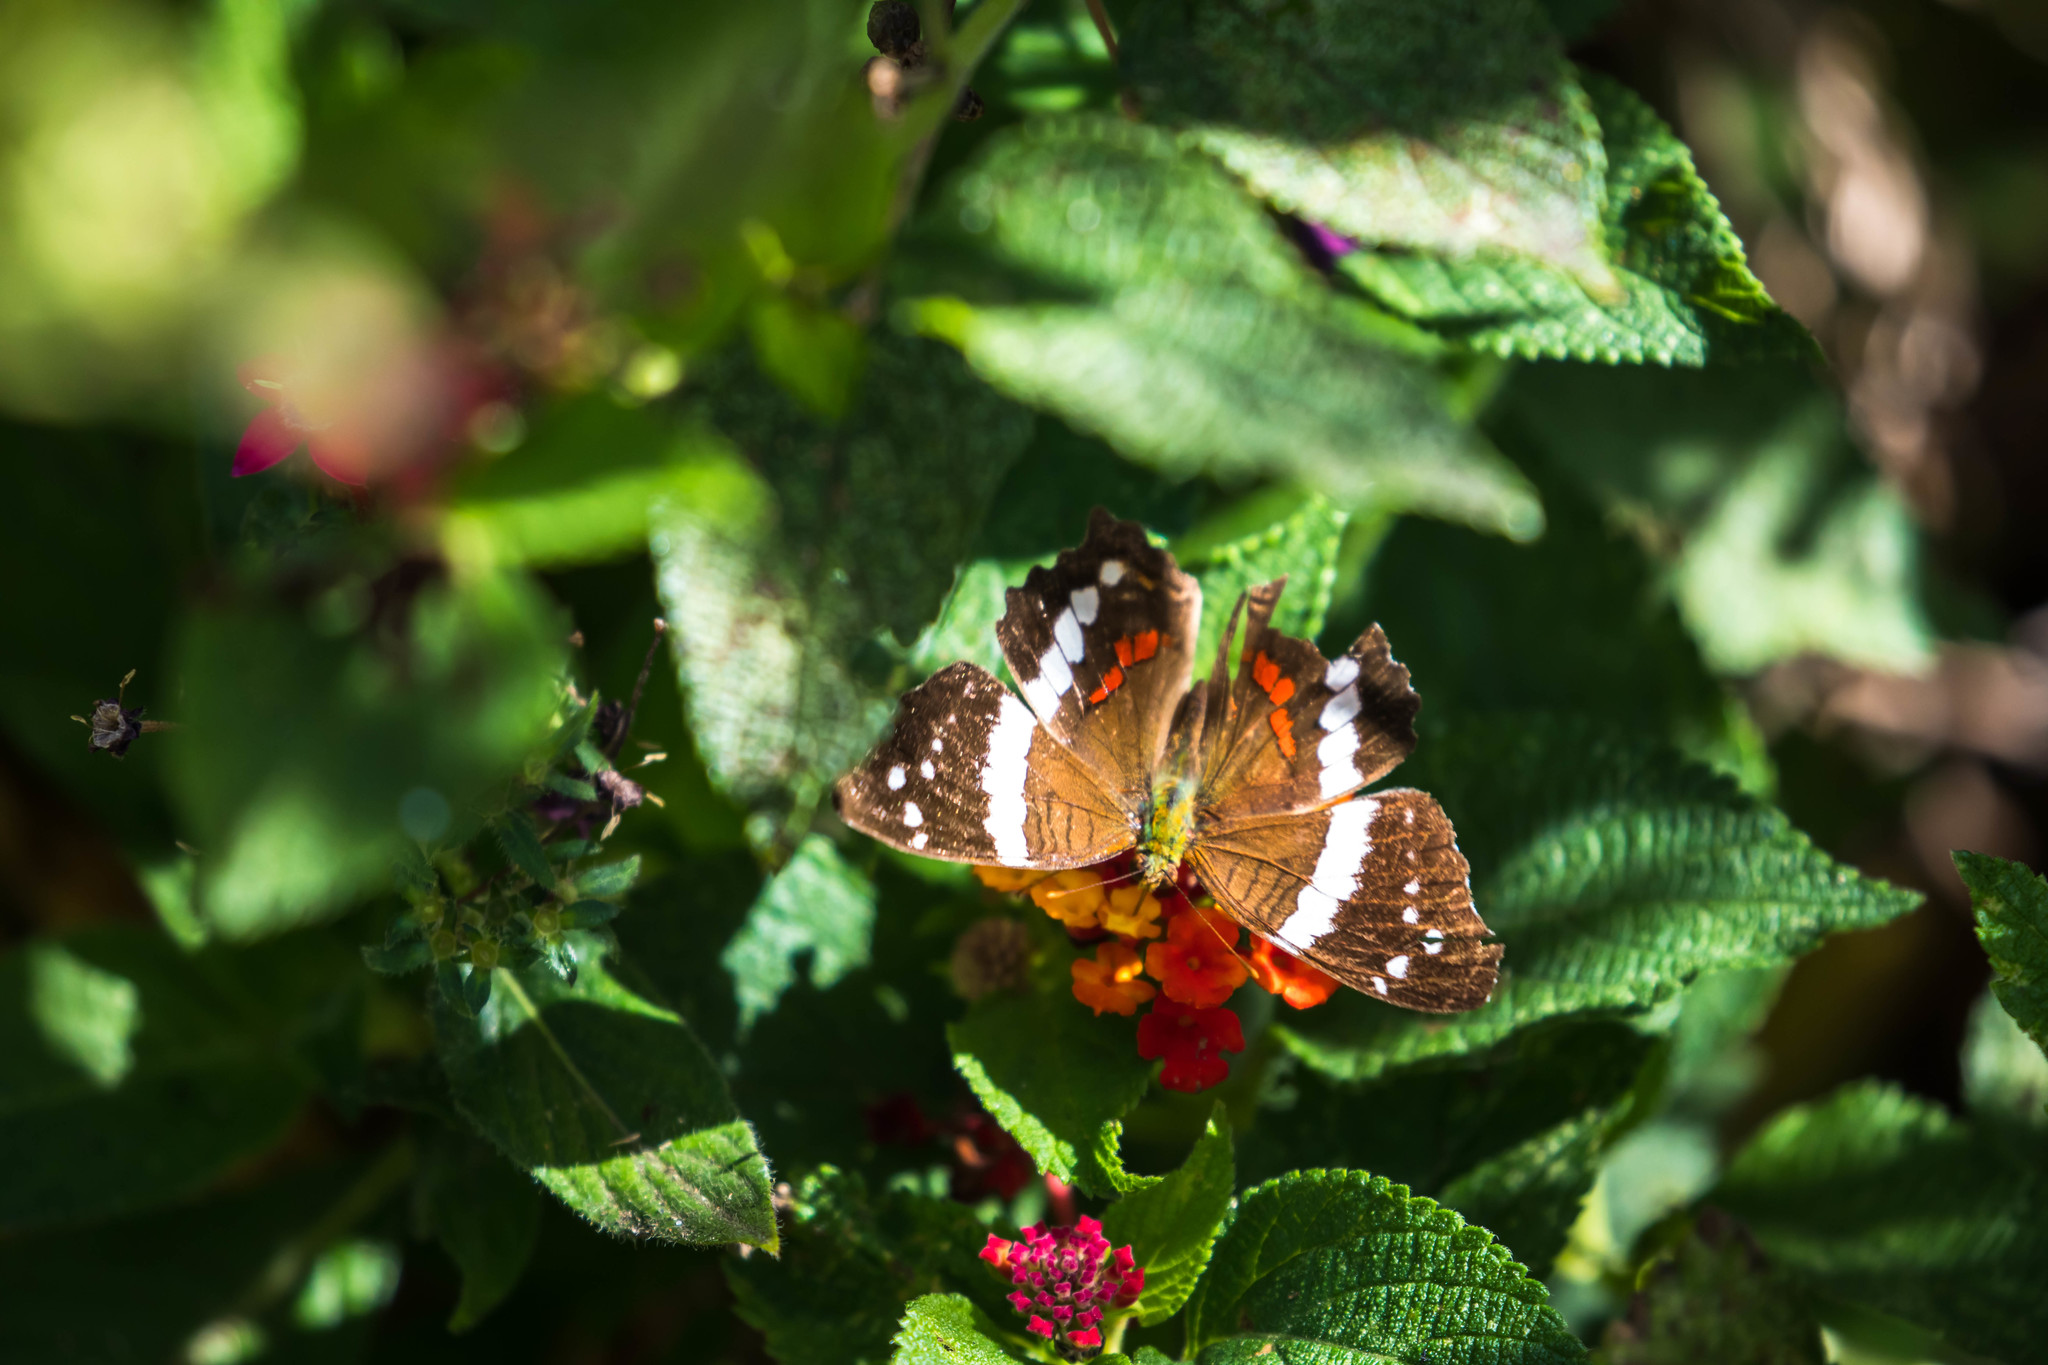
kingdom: Animalia
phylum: Arthropoda
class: Insecta
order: Lepidoptera
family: Nymphalidae
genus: Anartia
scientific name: Anartia fatima
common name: Banded peacock
